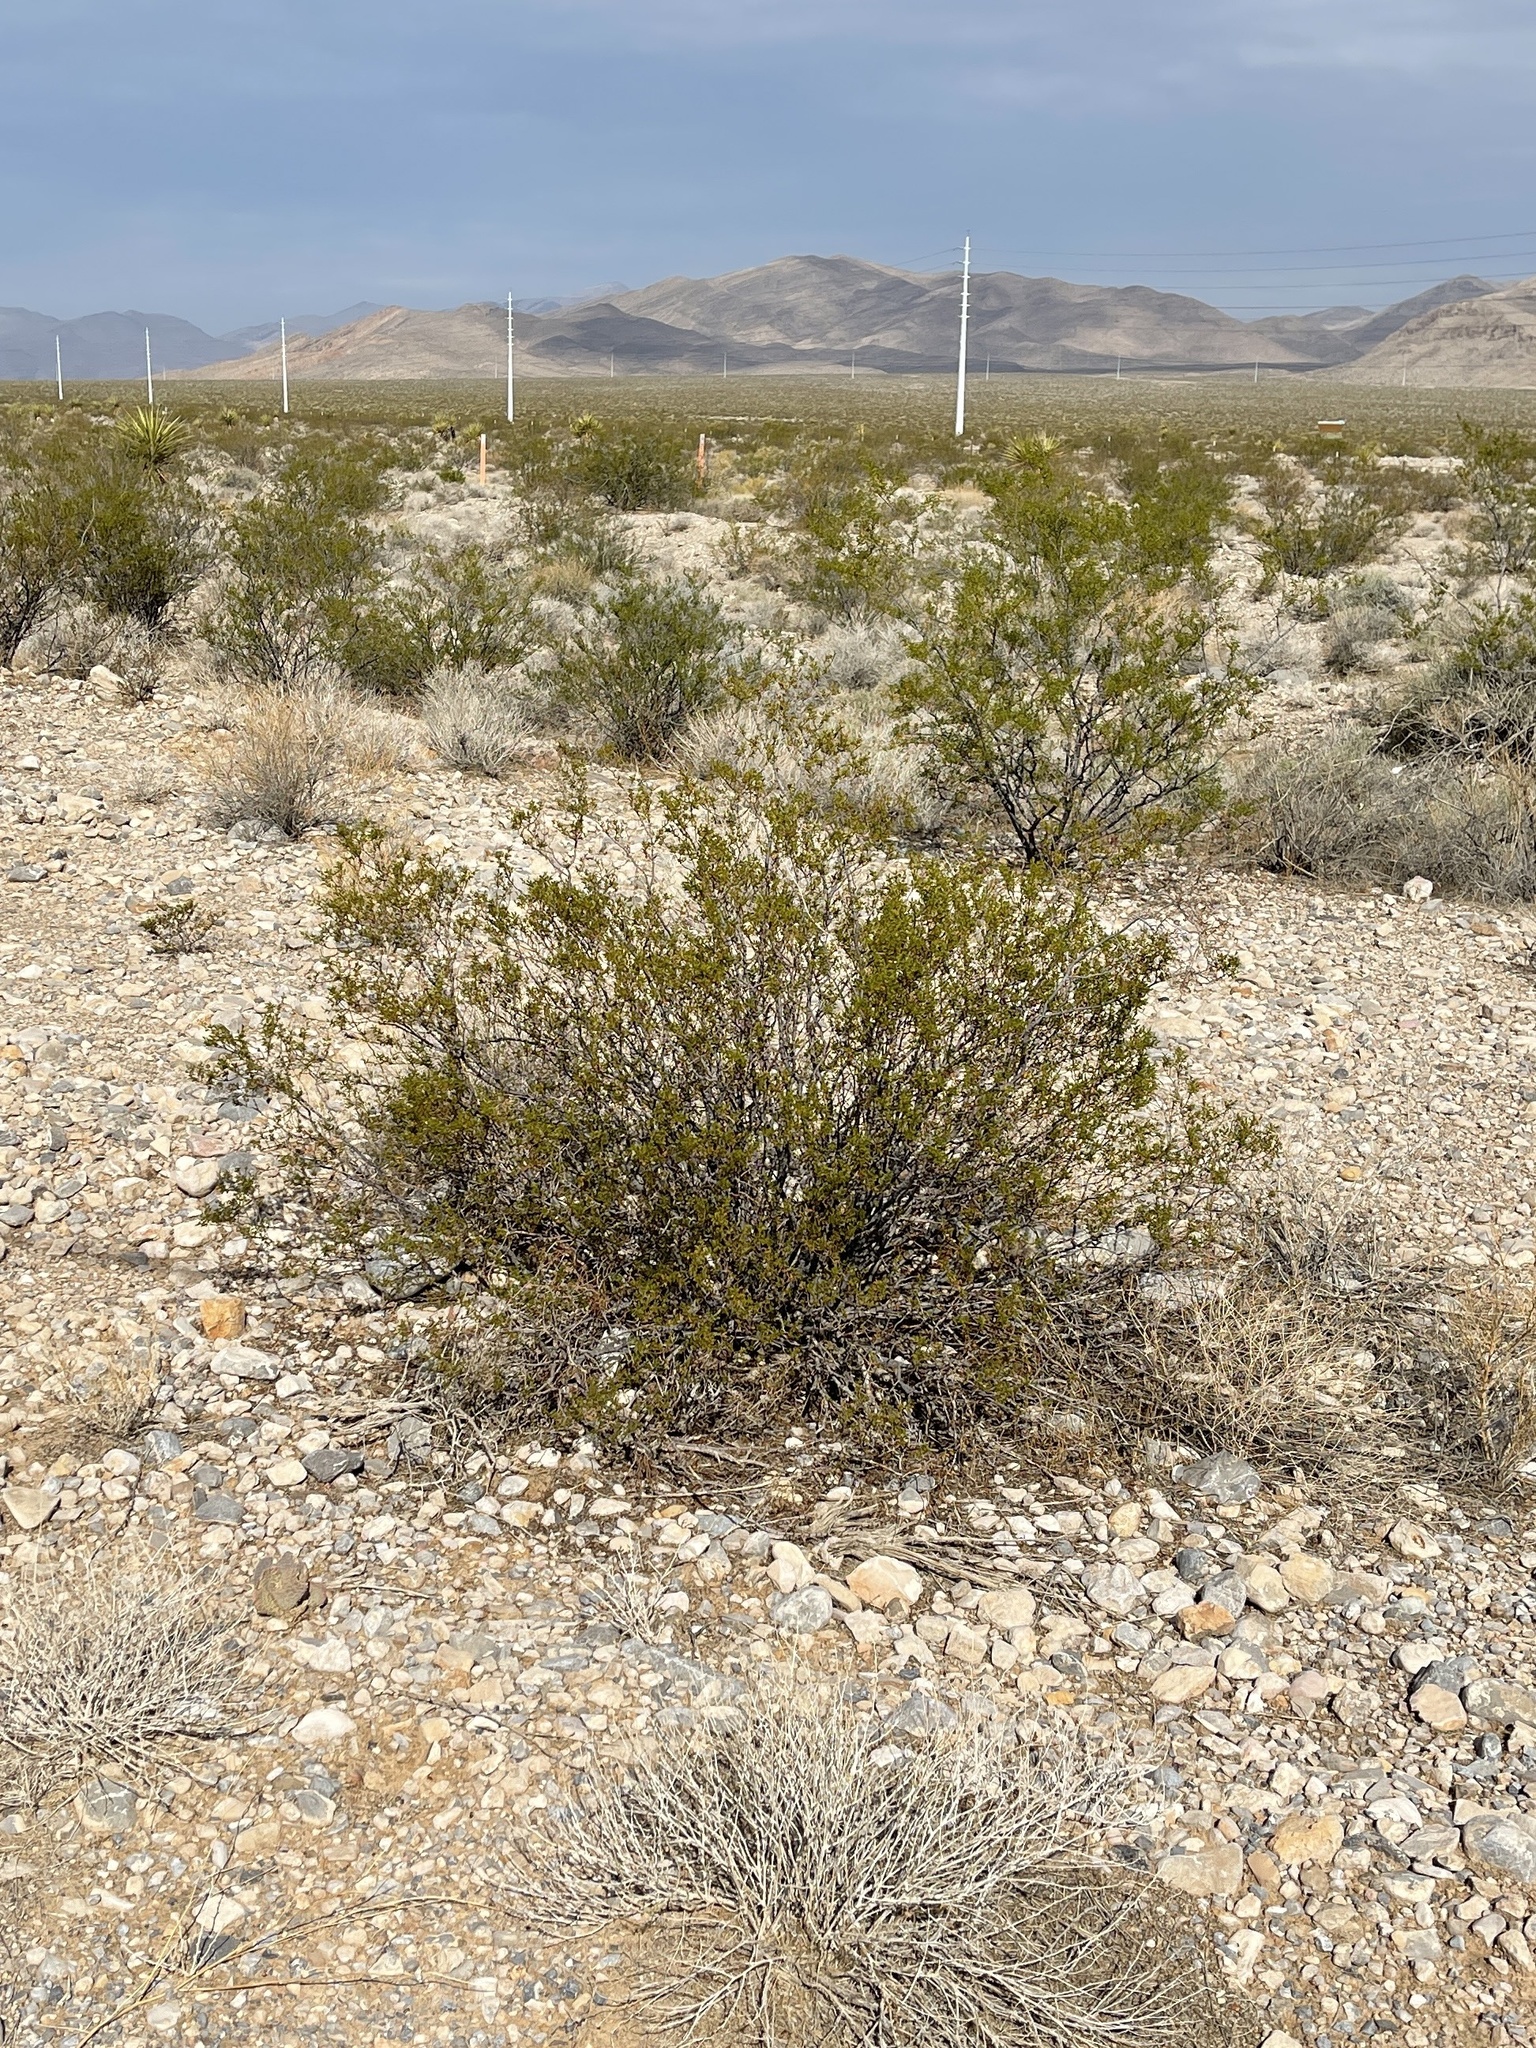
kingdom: Plantae
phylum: Tracheophyta
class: Magnoliopsida
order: Zygophyllales
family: Zygophyllaceae
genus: Larrea
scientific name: Larrea tridentata
